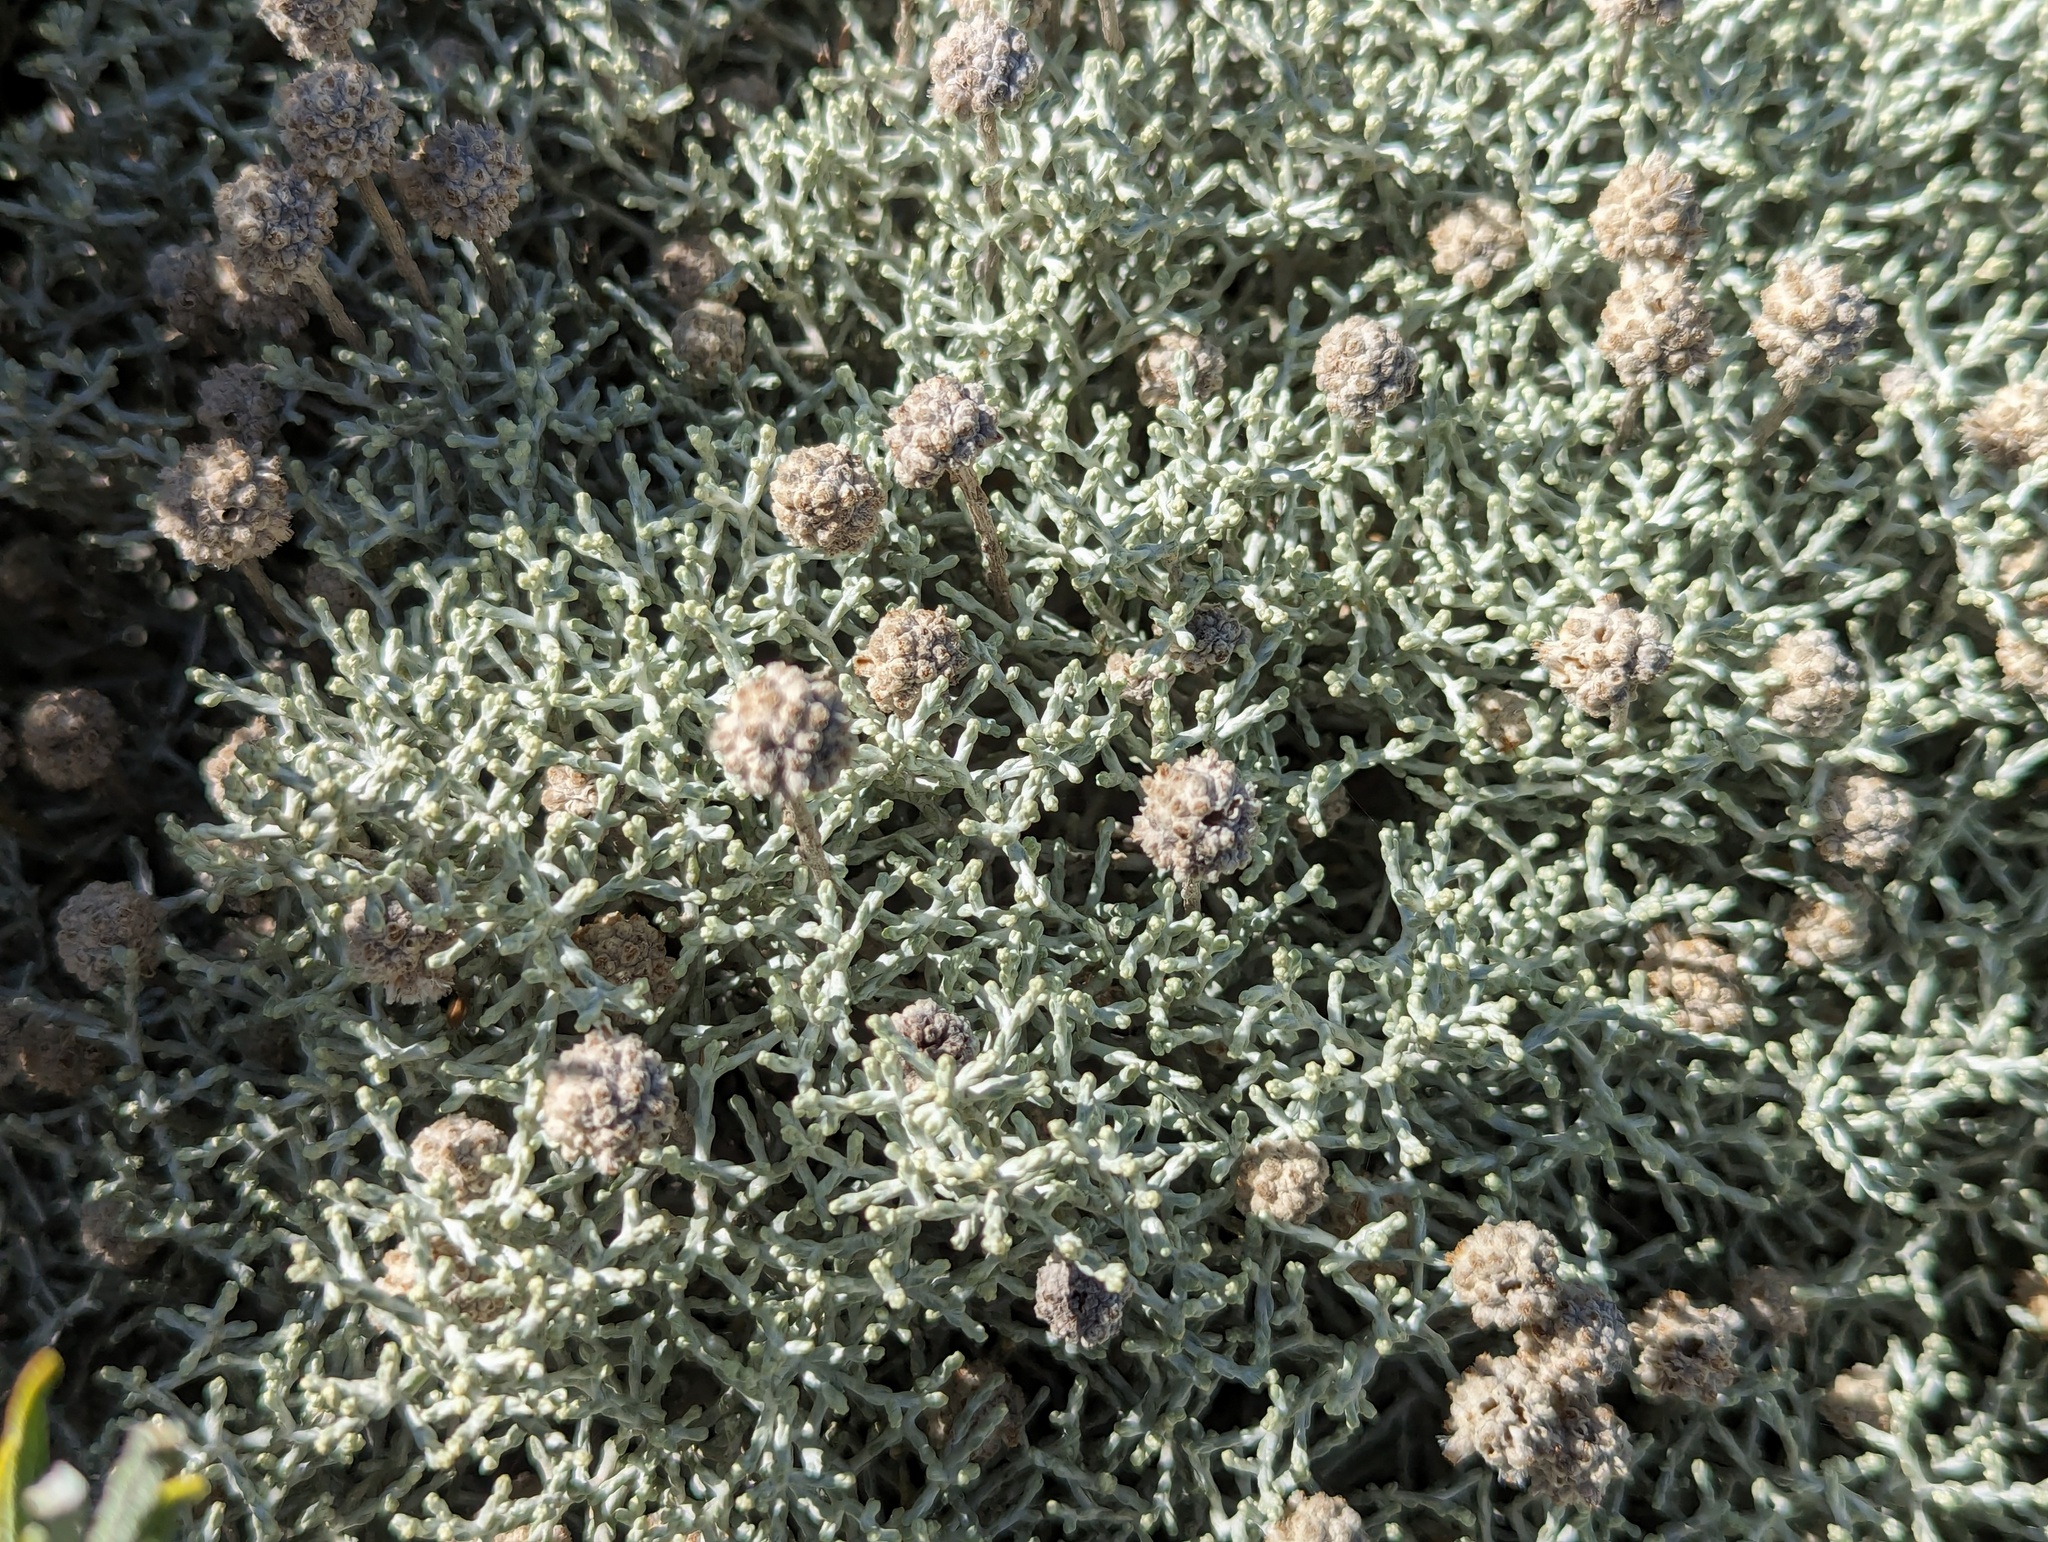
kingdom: Plantae
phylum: Tracheophyta
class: Magnoliopsida
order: Asterales
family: Asteraceae
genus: Calocephalus
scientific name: Calocephalus brownii
